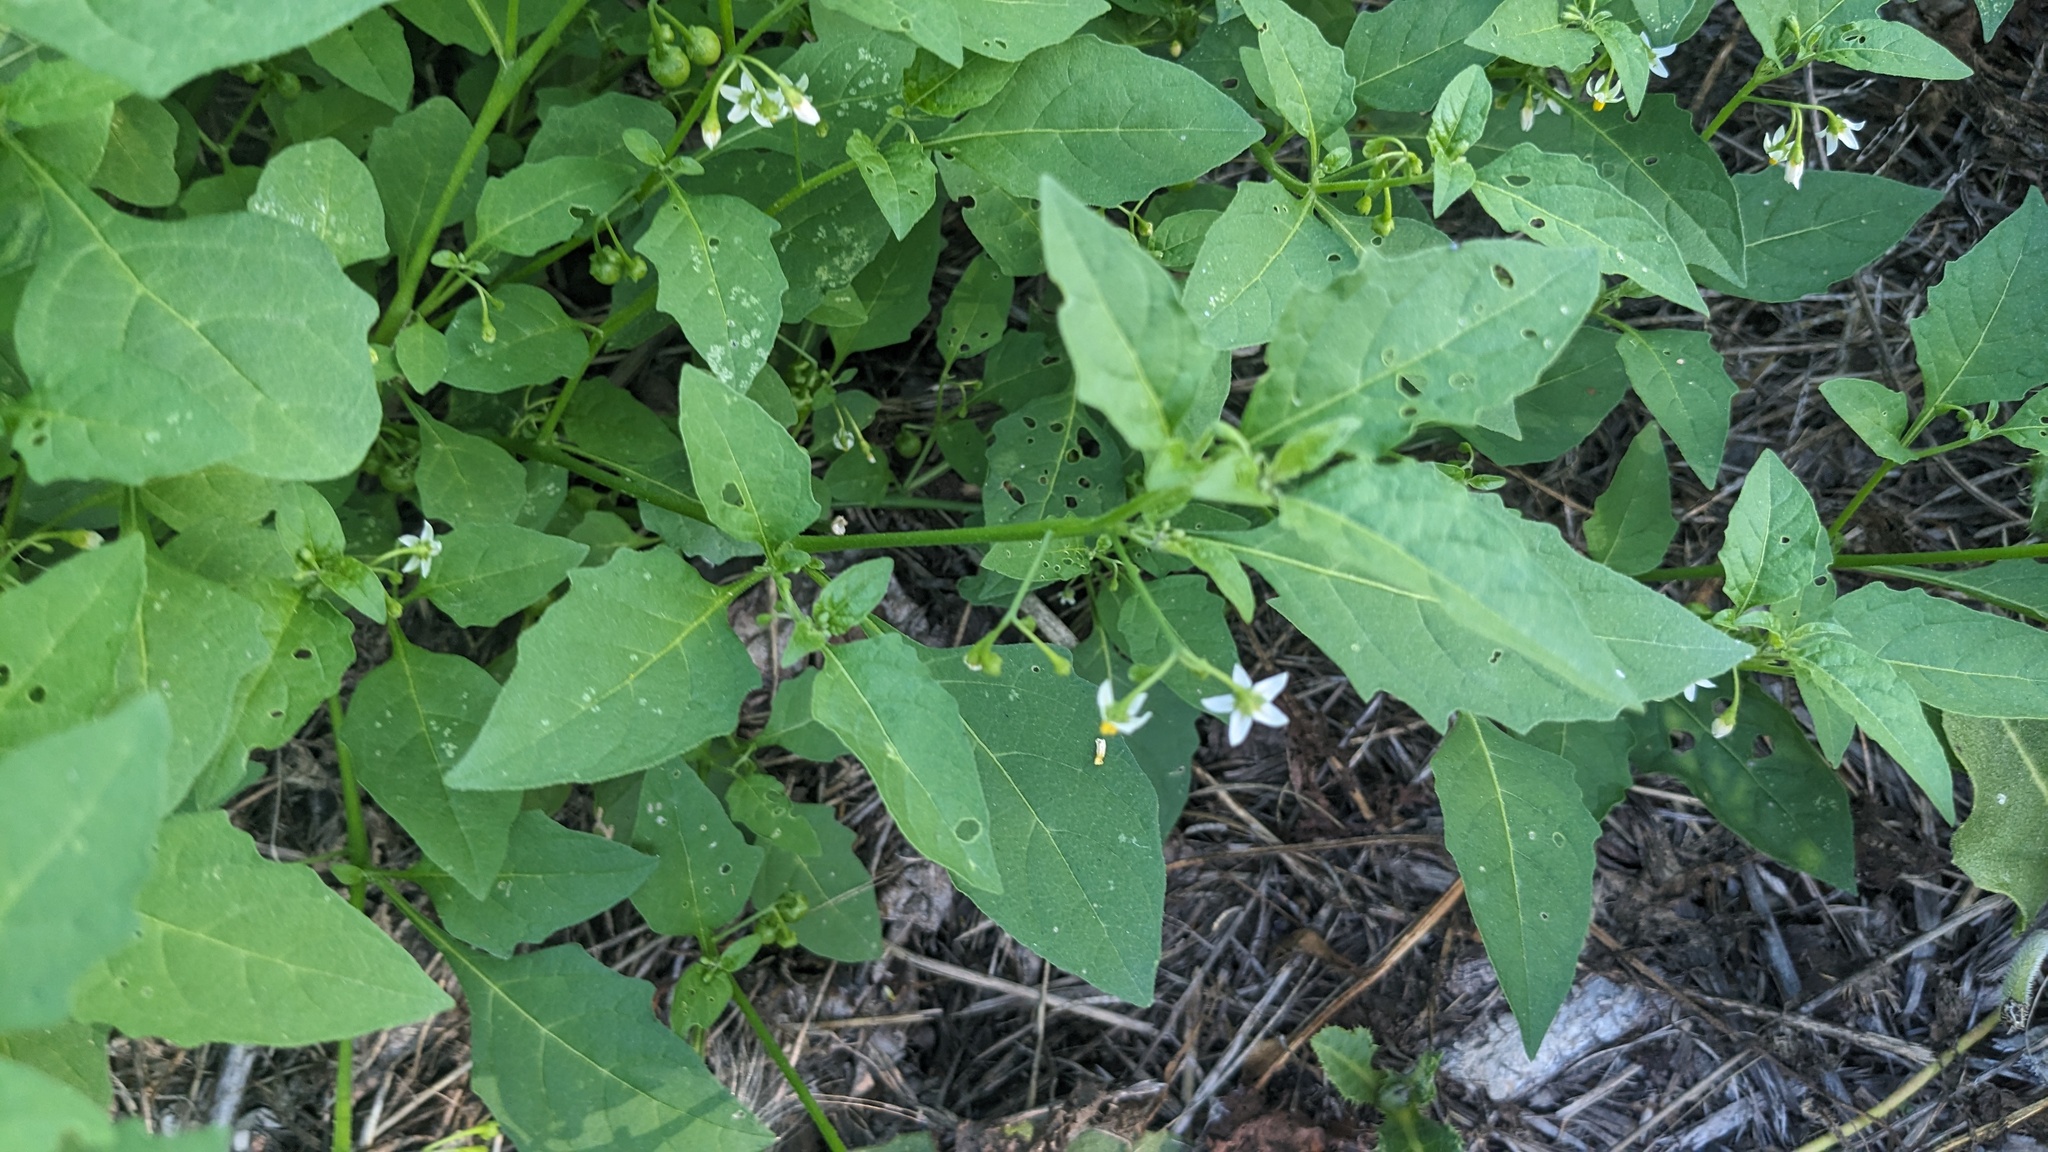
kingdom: Plantae
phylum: Tracheophyta
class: Magnoliopsida
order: Solanales
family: Solanaceae
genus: Solanum
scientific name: Solanum emulans
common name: Eastern black nightshade
